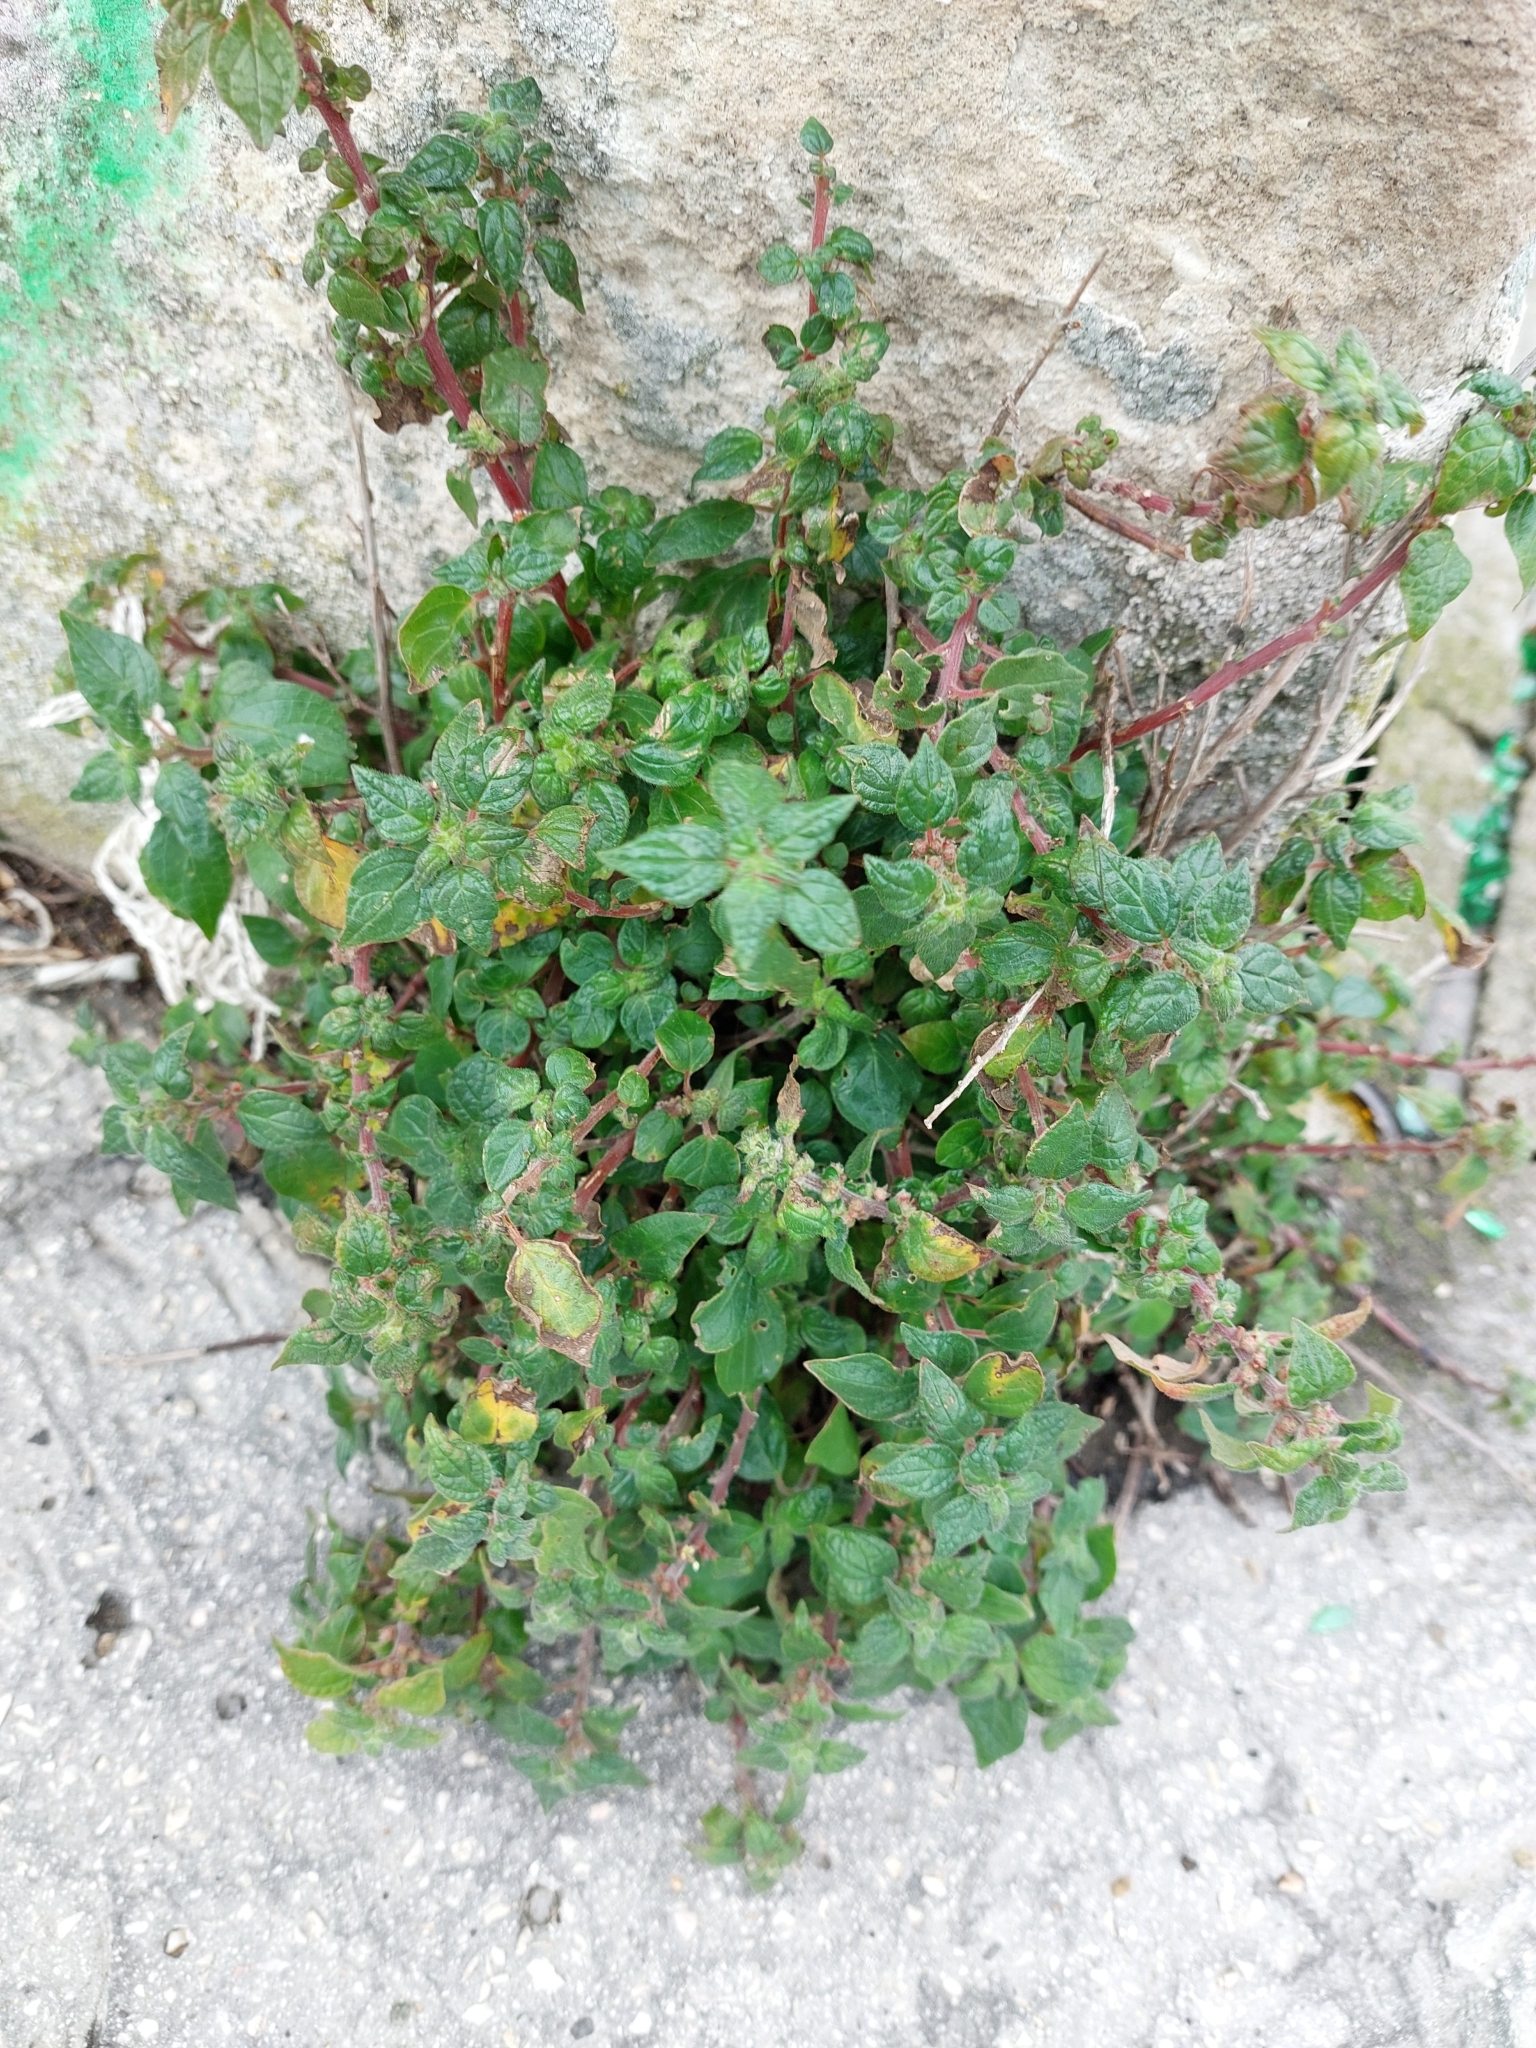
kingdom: Plantae
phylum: Tracheophyta
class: Magnoliopsida
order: Rosales
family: Urticaceae
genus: Parietaria
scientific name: Parietaria judaica
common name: Pellitory-of-the-wall
